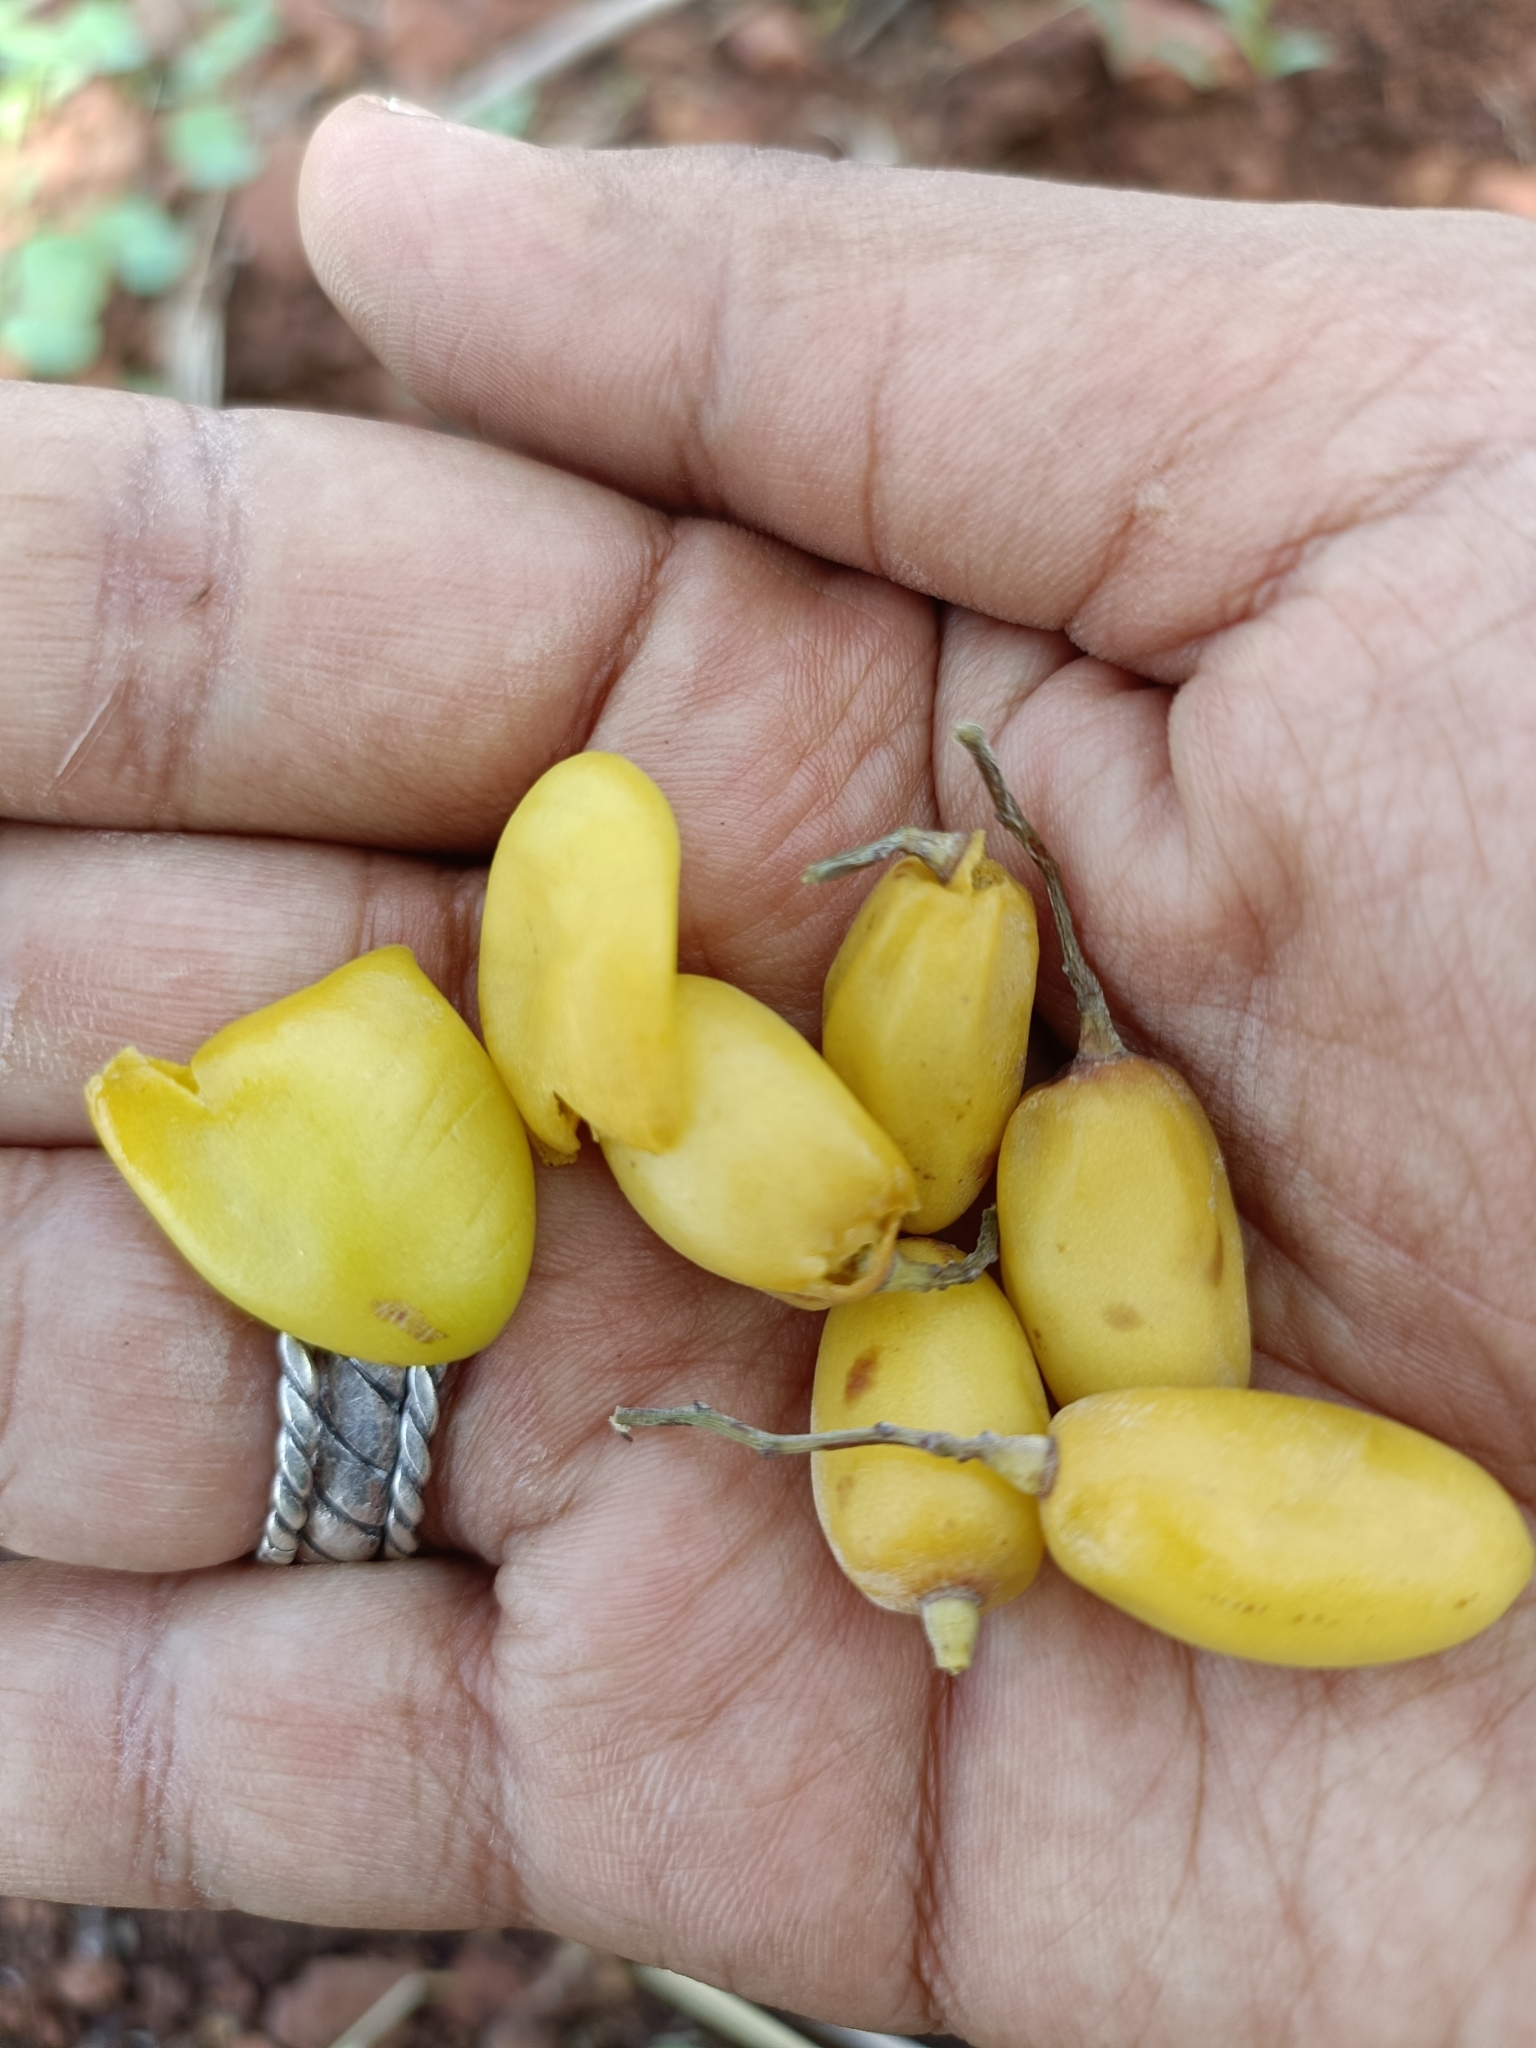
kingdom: Plantae
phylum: Tracheophyta
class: Magnoliopsida
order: Sapindales
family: Meliaceae
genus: Azadirachta
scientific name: Azadirachta indica
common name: Neem
